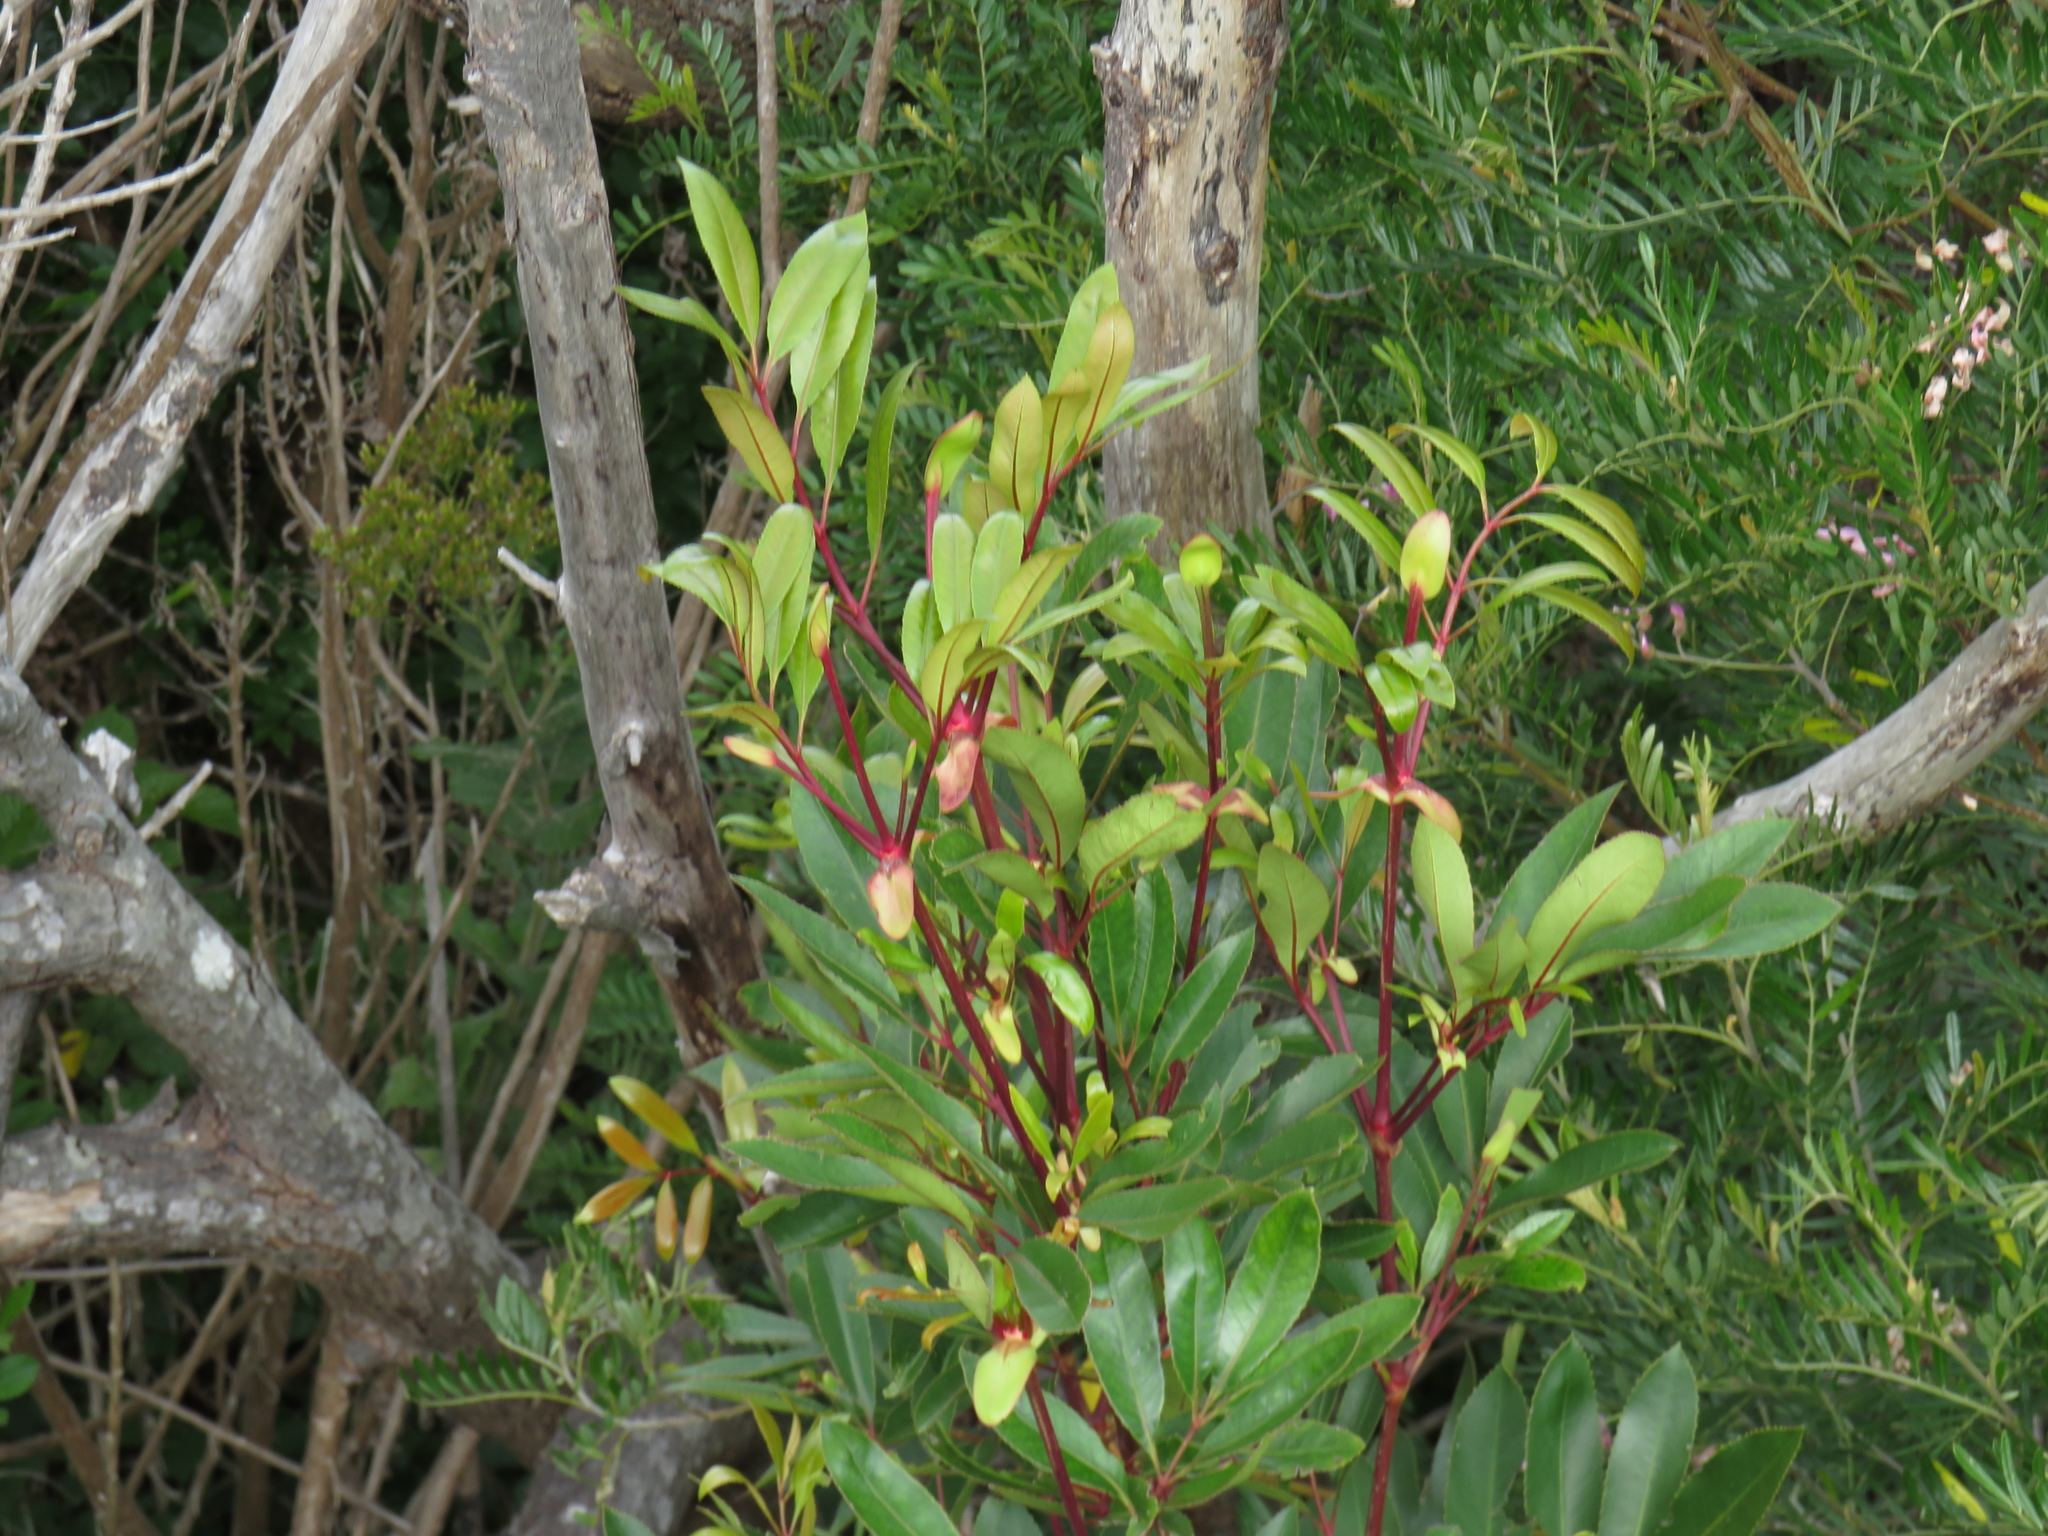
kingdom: Plantae
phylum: Tracheophyta
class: Magnoliopsida
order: Oxalidales
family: Cunoniaceae
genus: Cunonia
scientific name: Cunonia capensis
